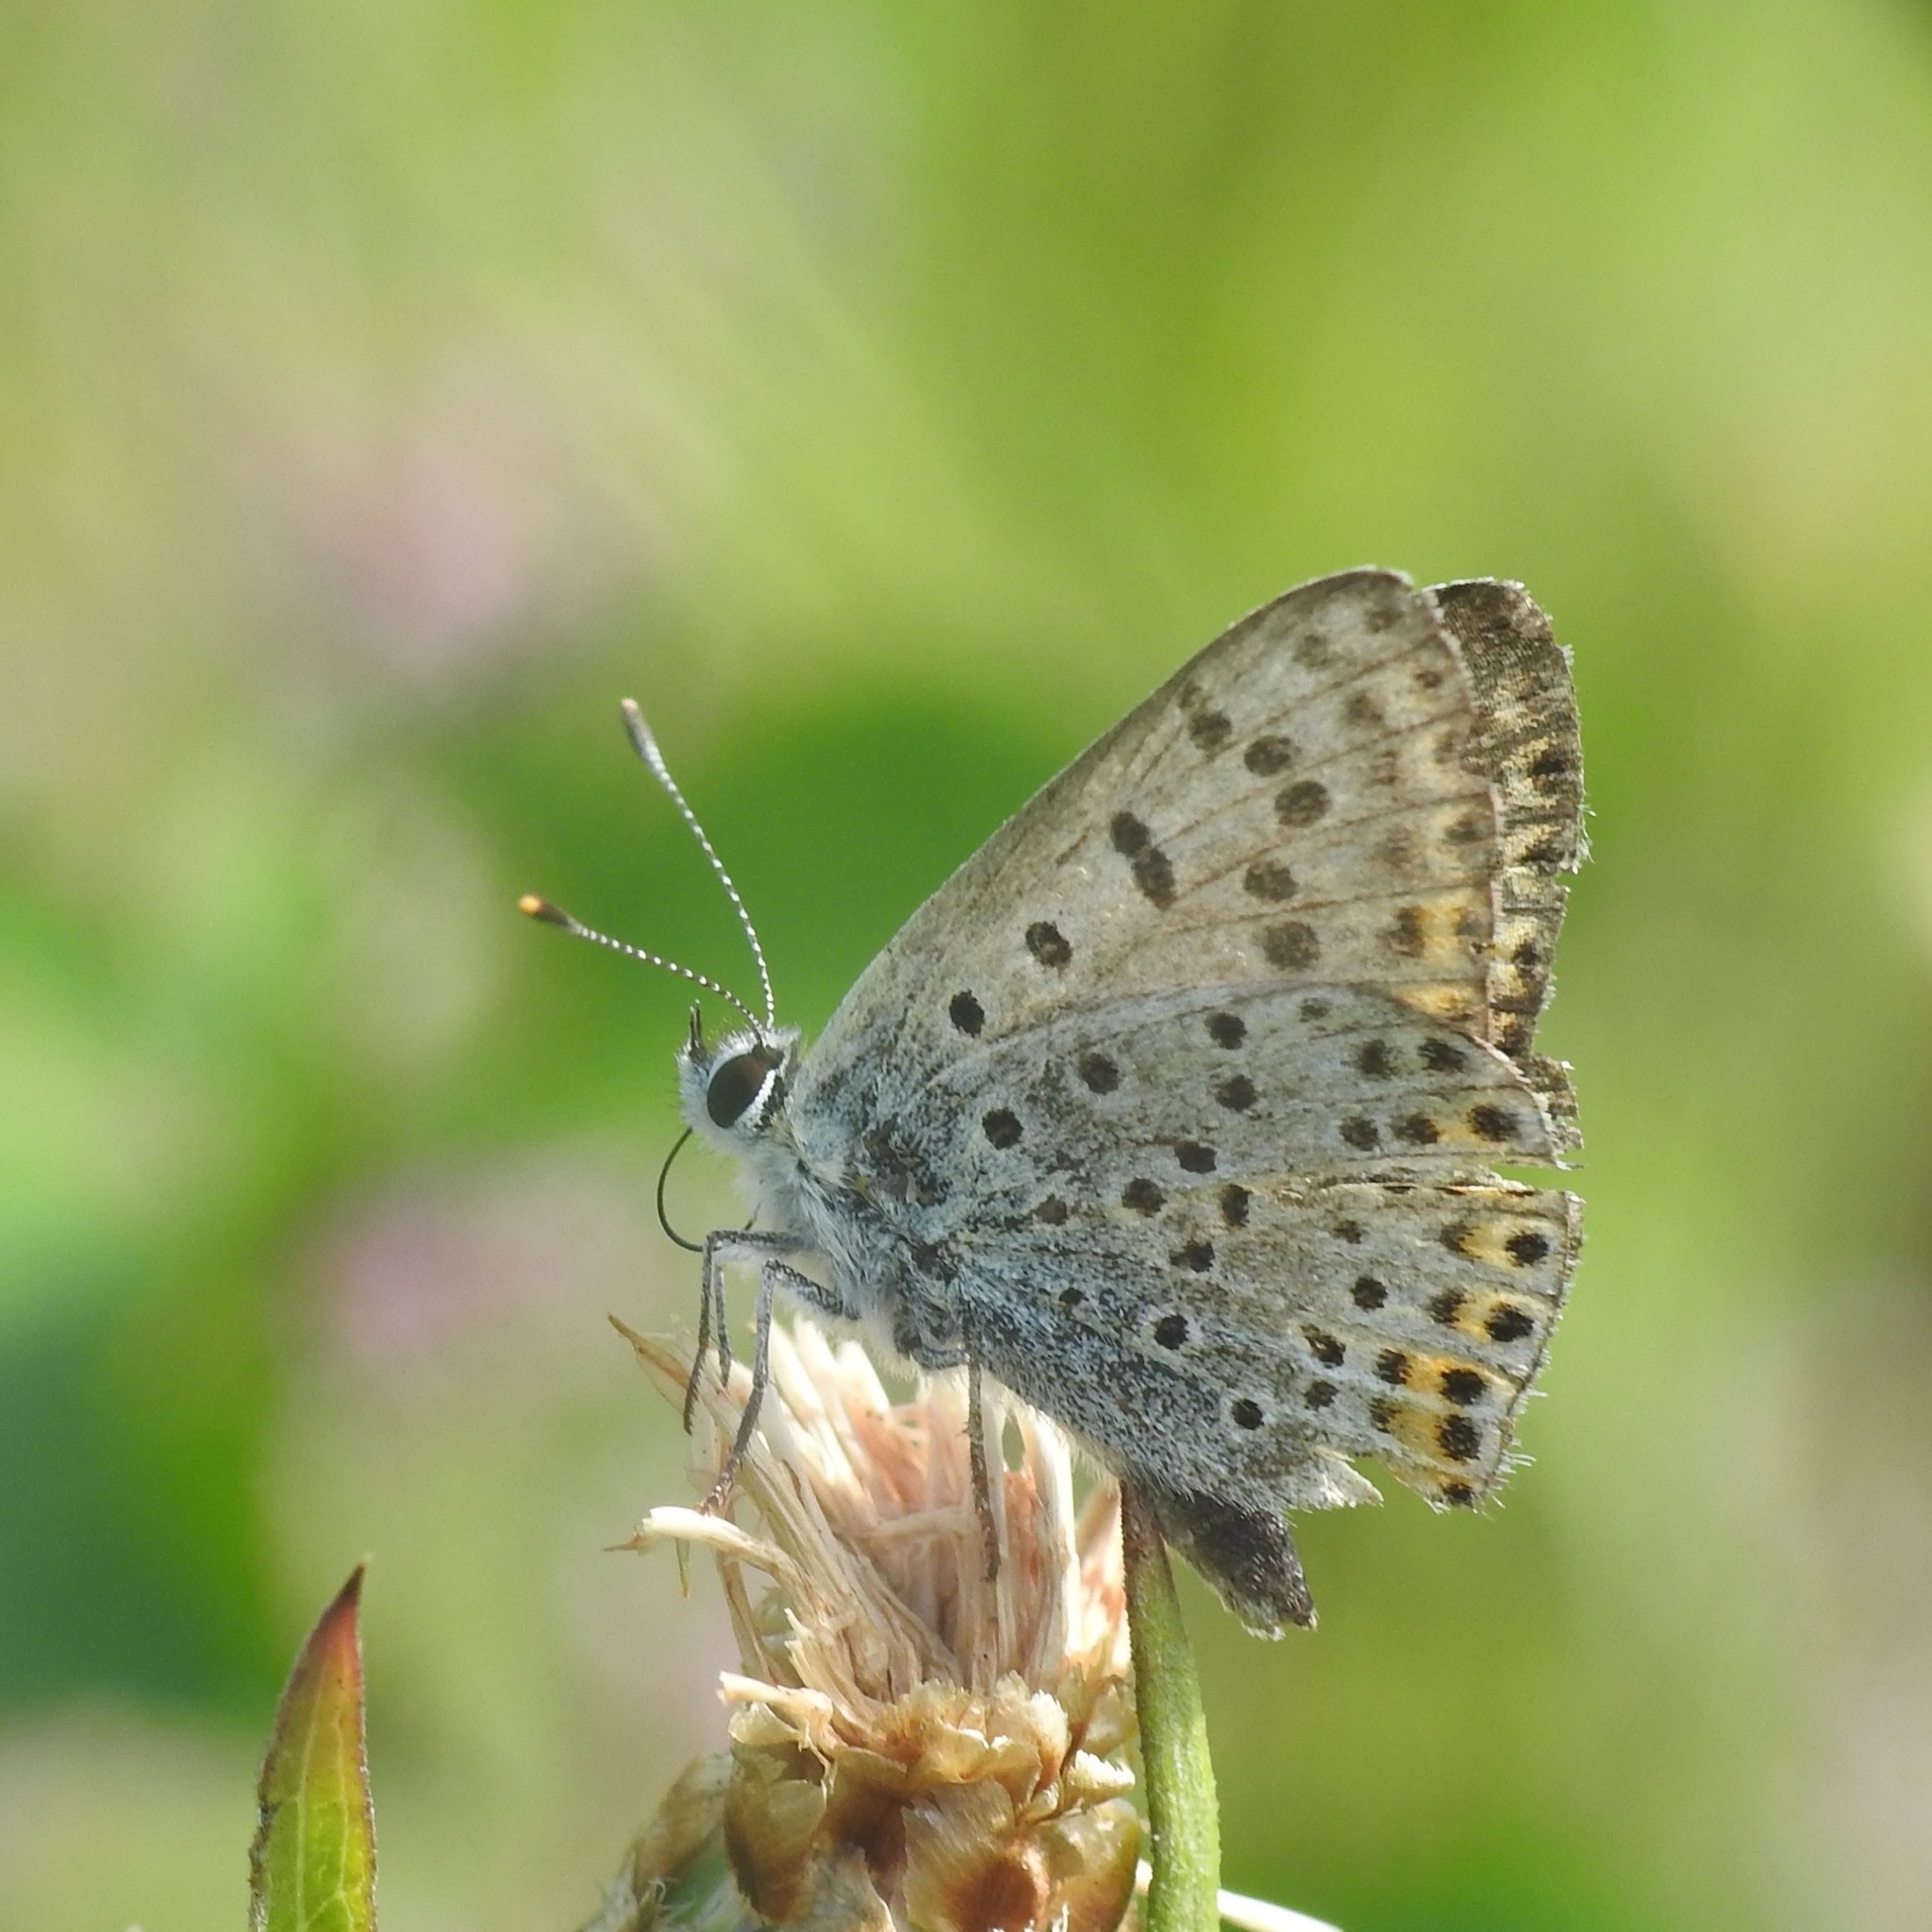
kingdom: Animalia
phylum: Arthropoda
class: Insecta
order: Lepidoptera
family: Lycaenidae
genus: Loweia
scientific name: Loweia tityrus
